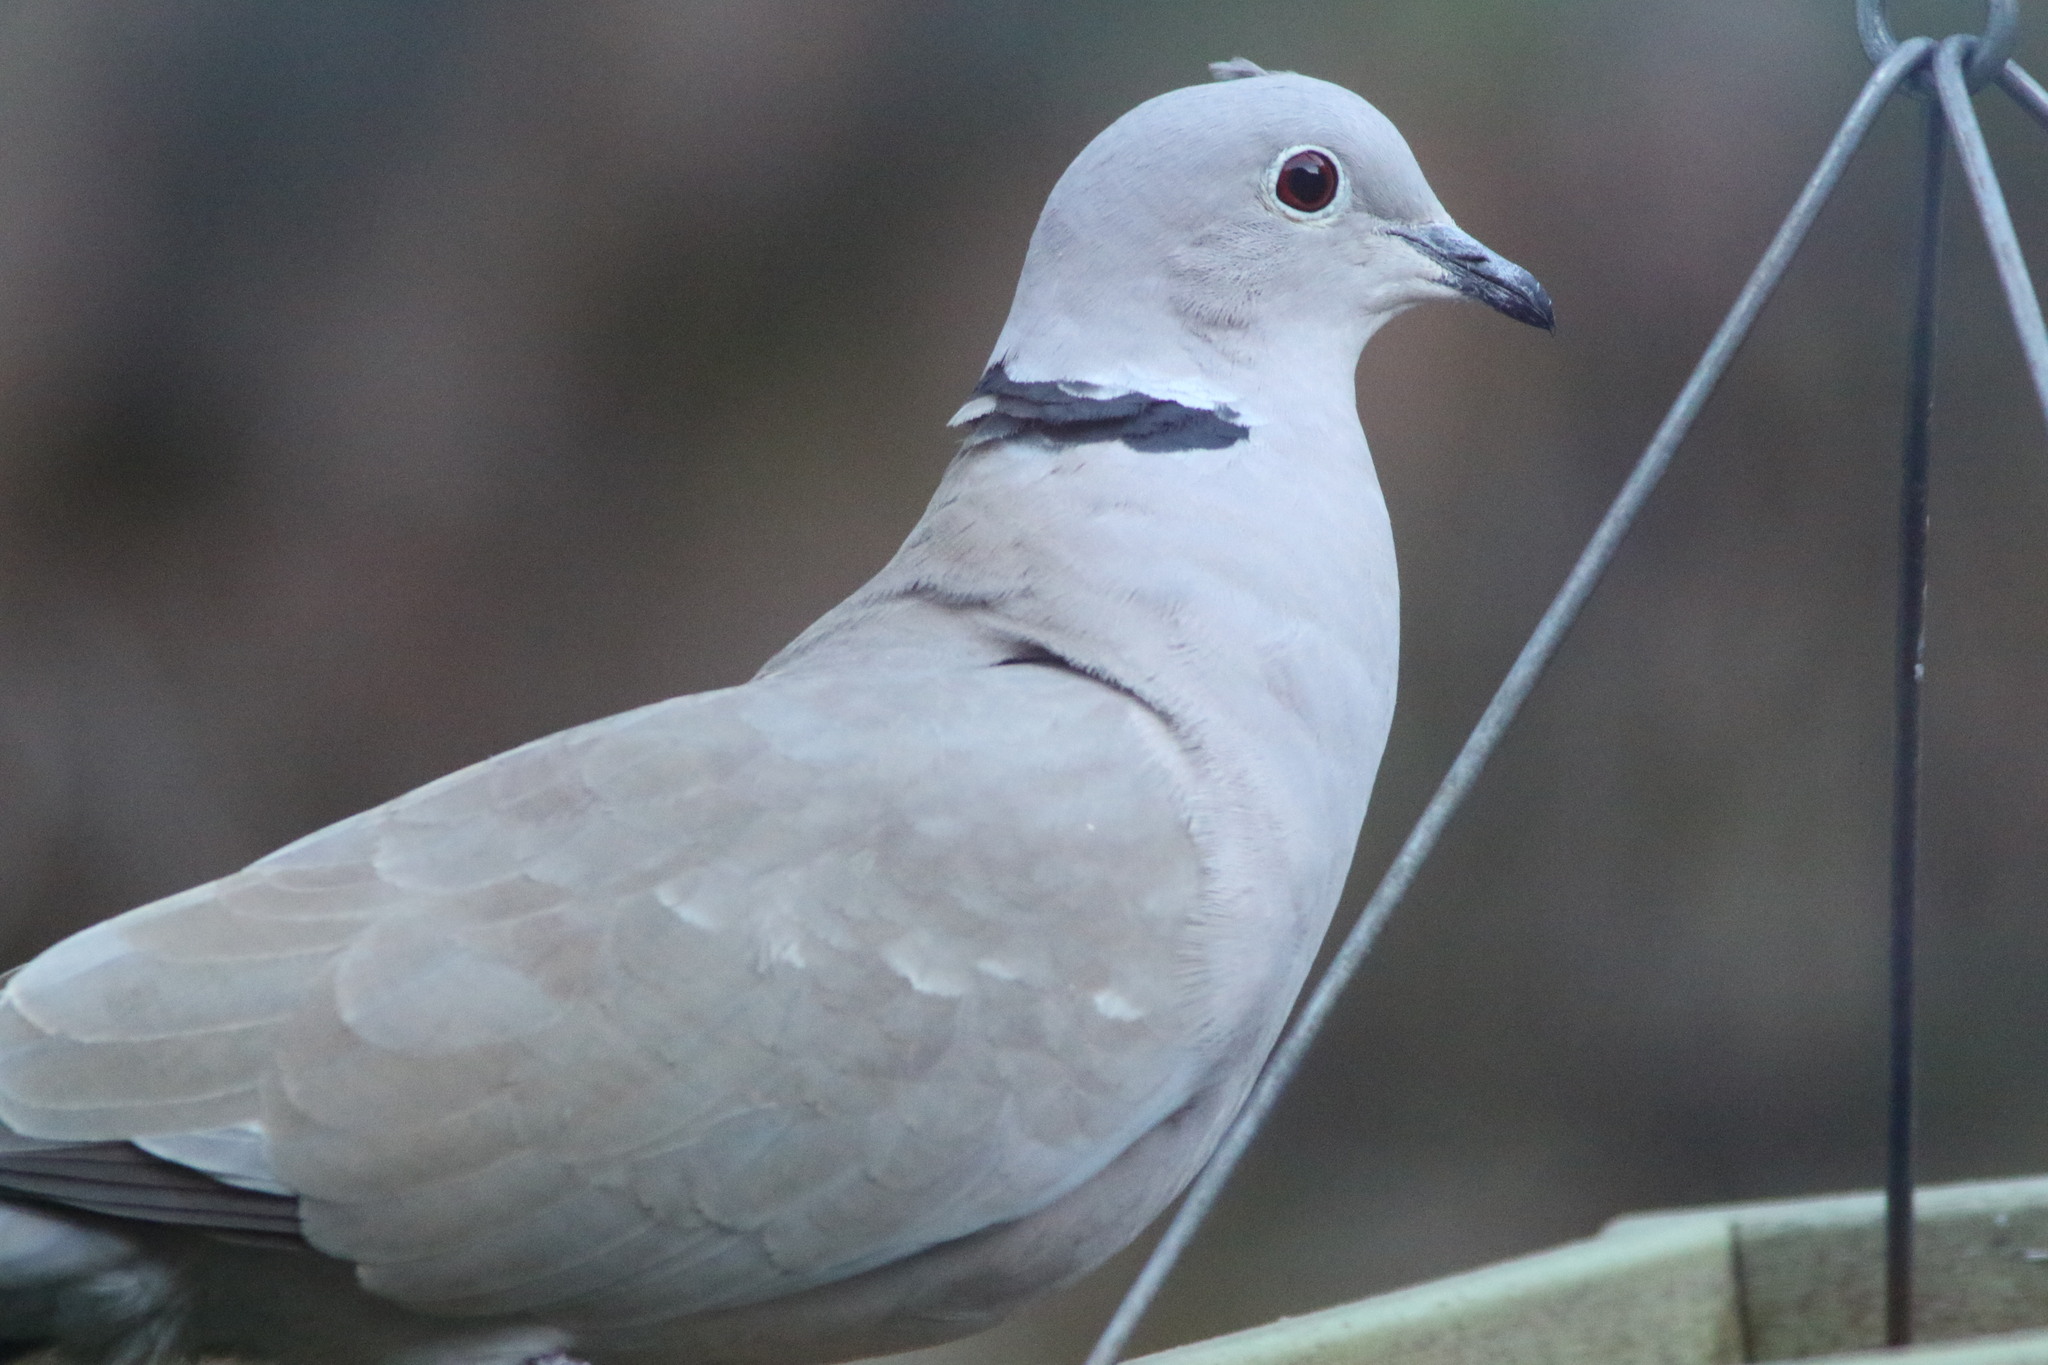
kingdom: Animalia
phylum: Chordata
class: Aves
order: Columbiformes
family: Columbidae
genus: Streptopelia
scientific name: Streptopelia decaocto
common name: Eurasian collared dove
